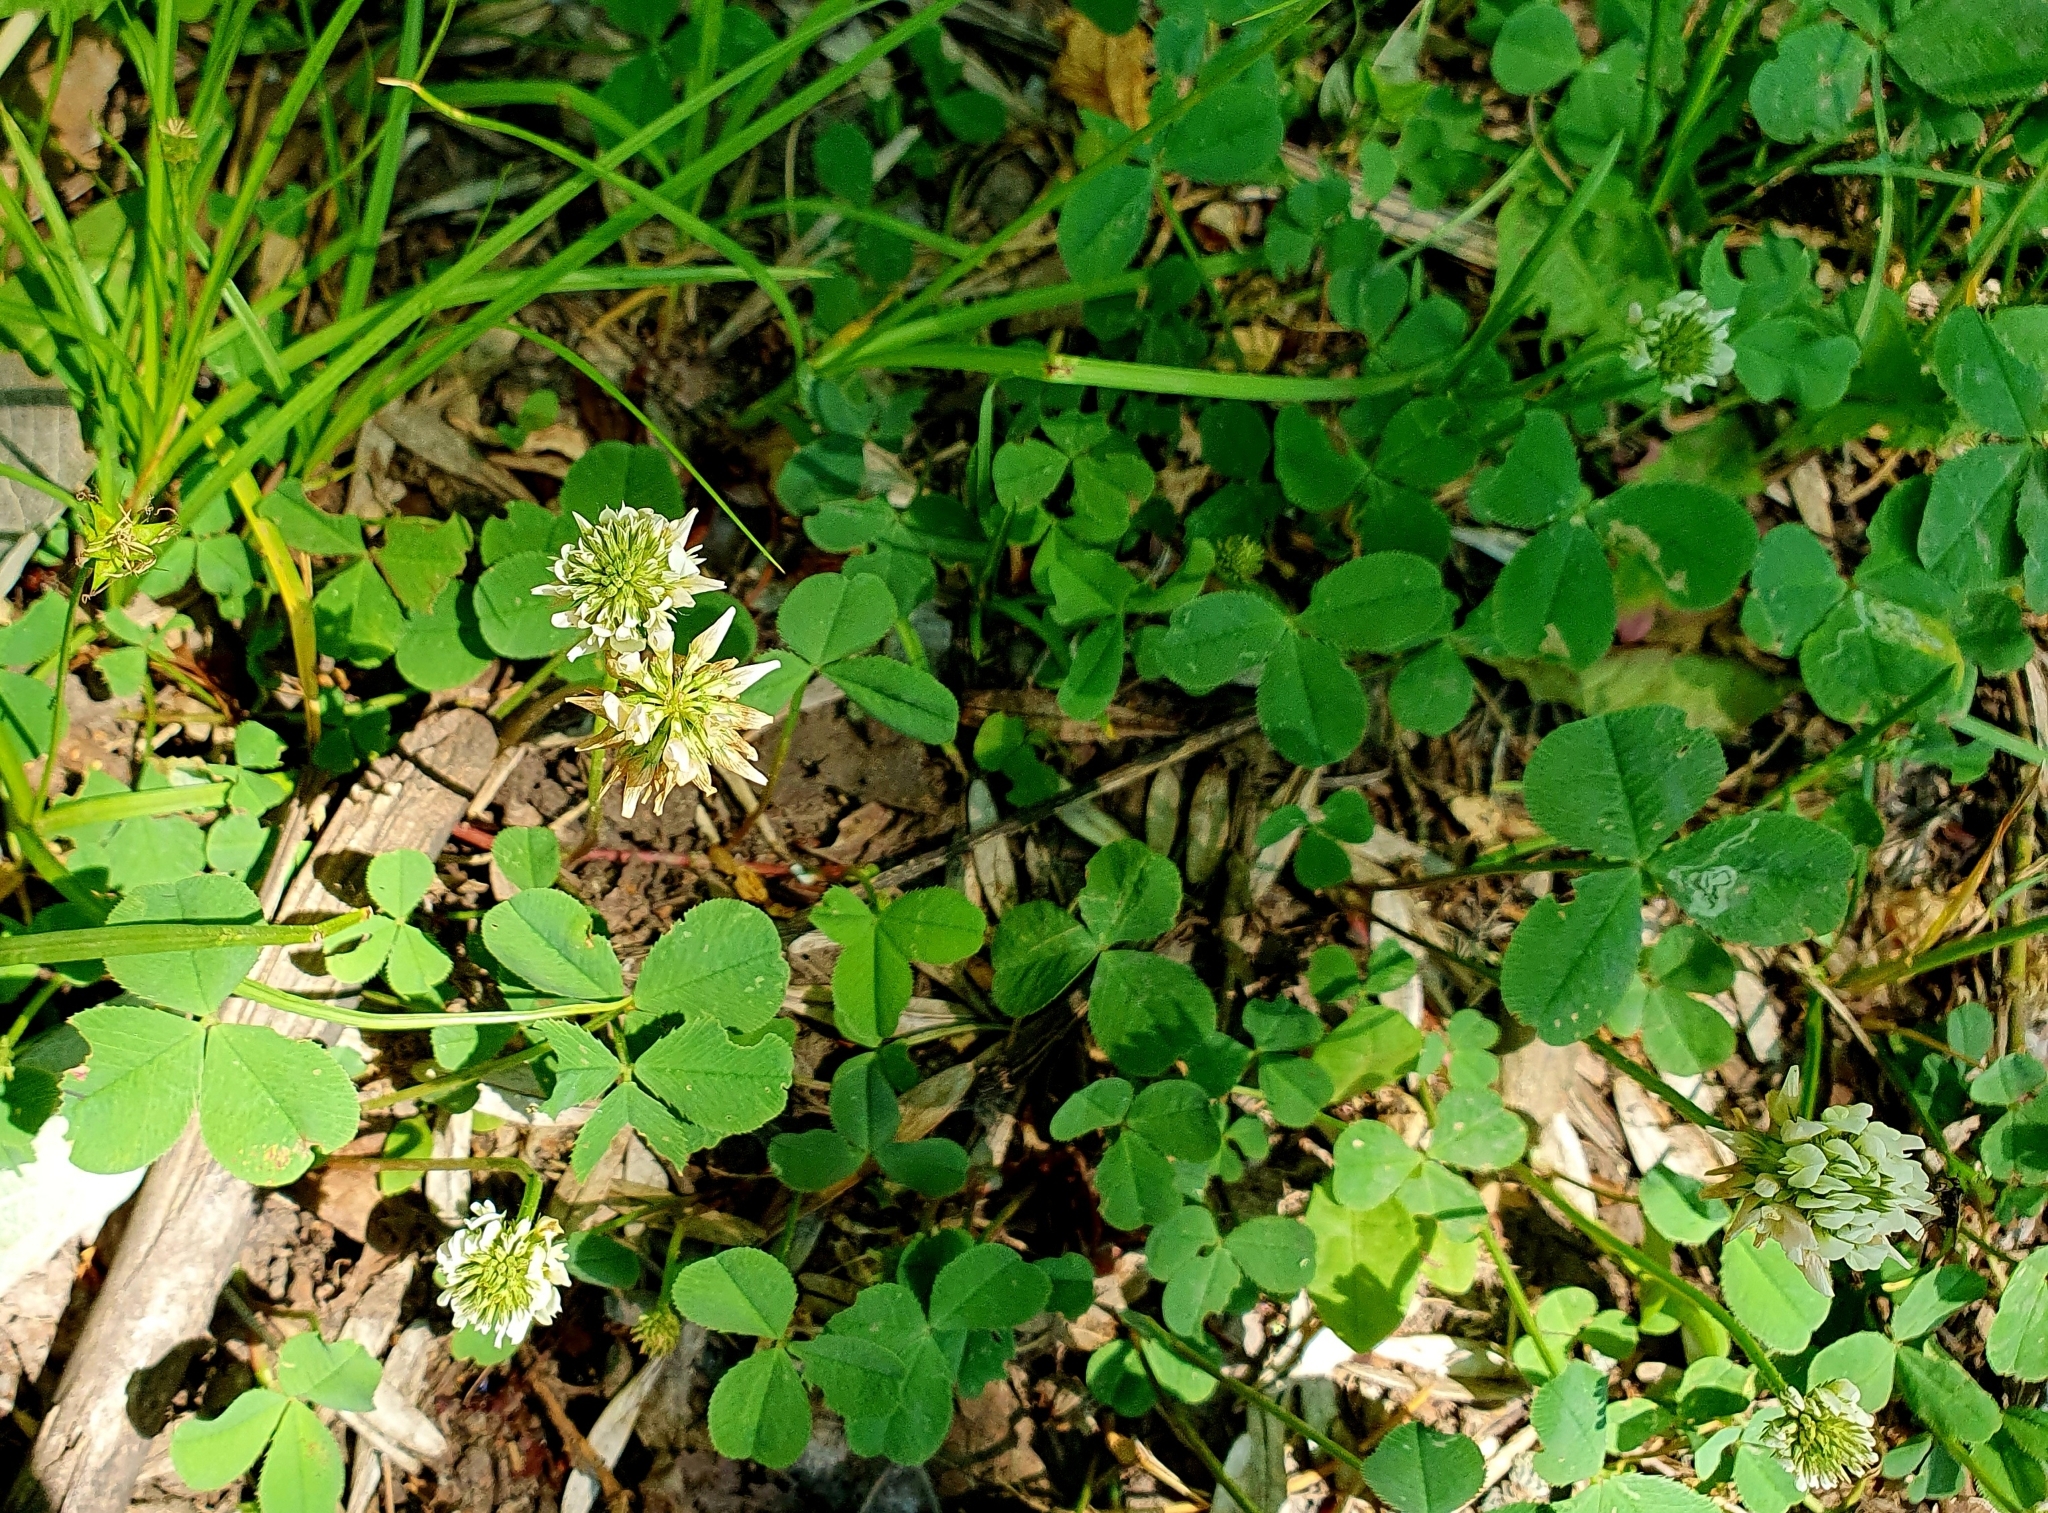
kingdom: Plantae
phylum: Tracheophyta
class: Magnoliopsida
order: Fabales
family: Fabaceae
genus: Trifolium
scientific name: Trifolium repens
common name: White clover
